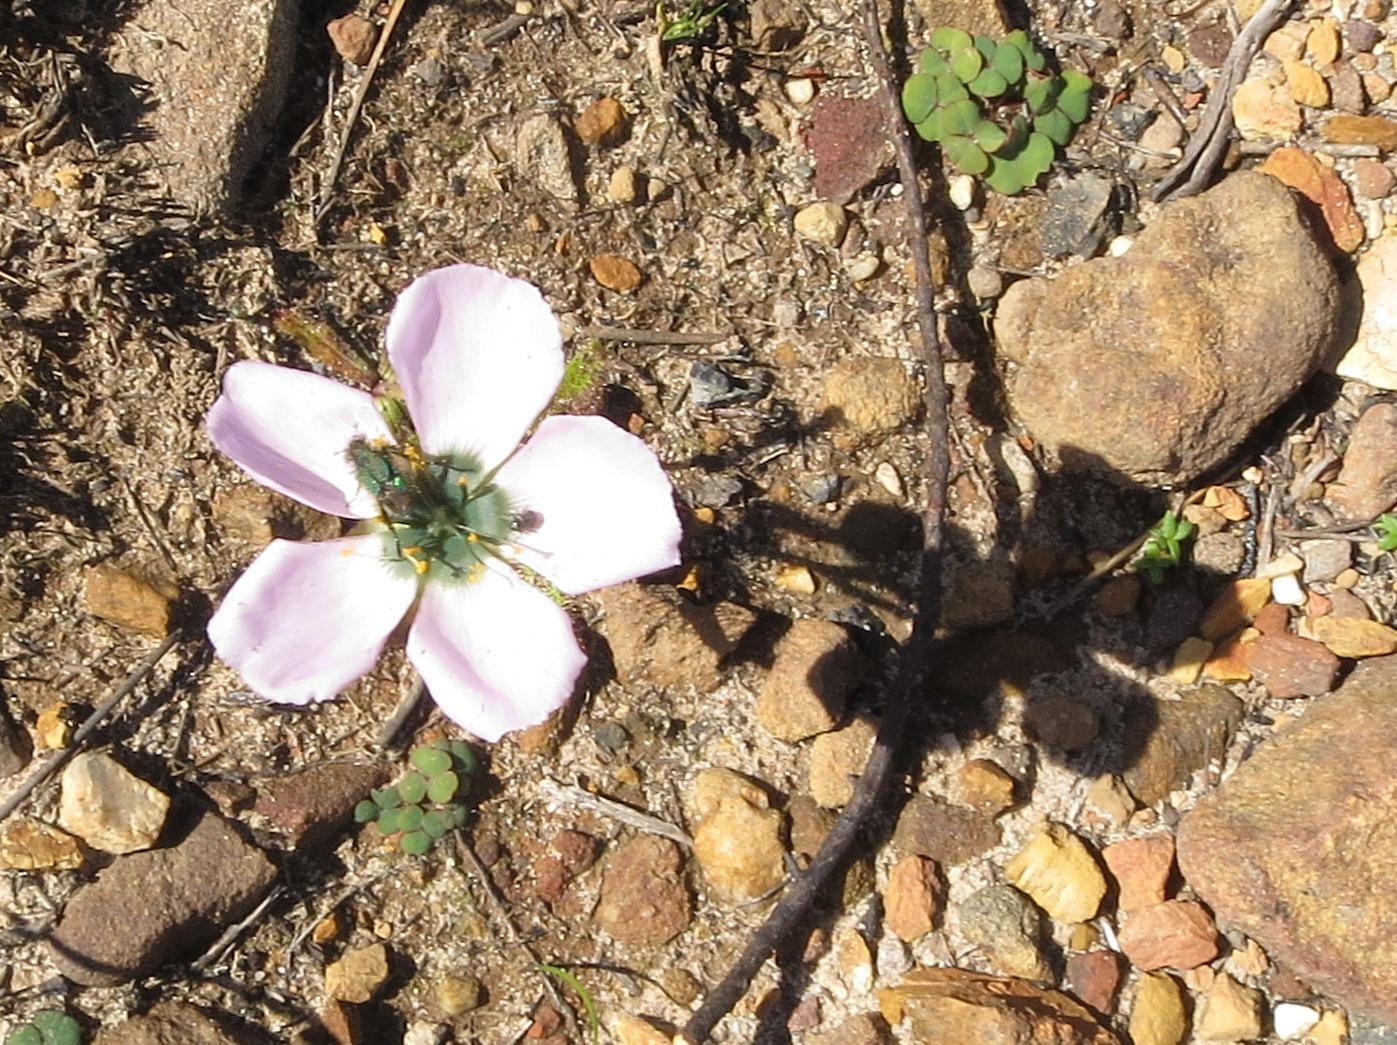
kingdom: Plantae
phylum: Tracheophyta
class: Magnoliopsida
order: Caryophyllales
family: Droseraceae
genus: Drosera
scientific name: Drosera cistiflora
